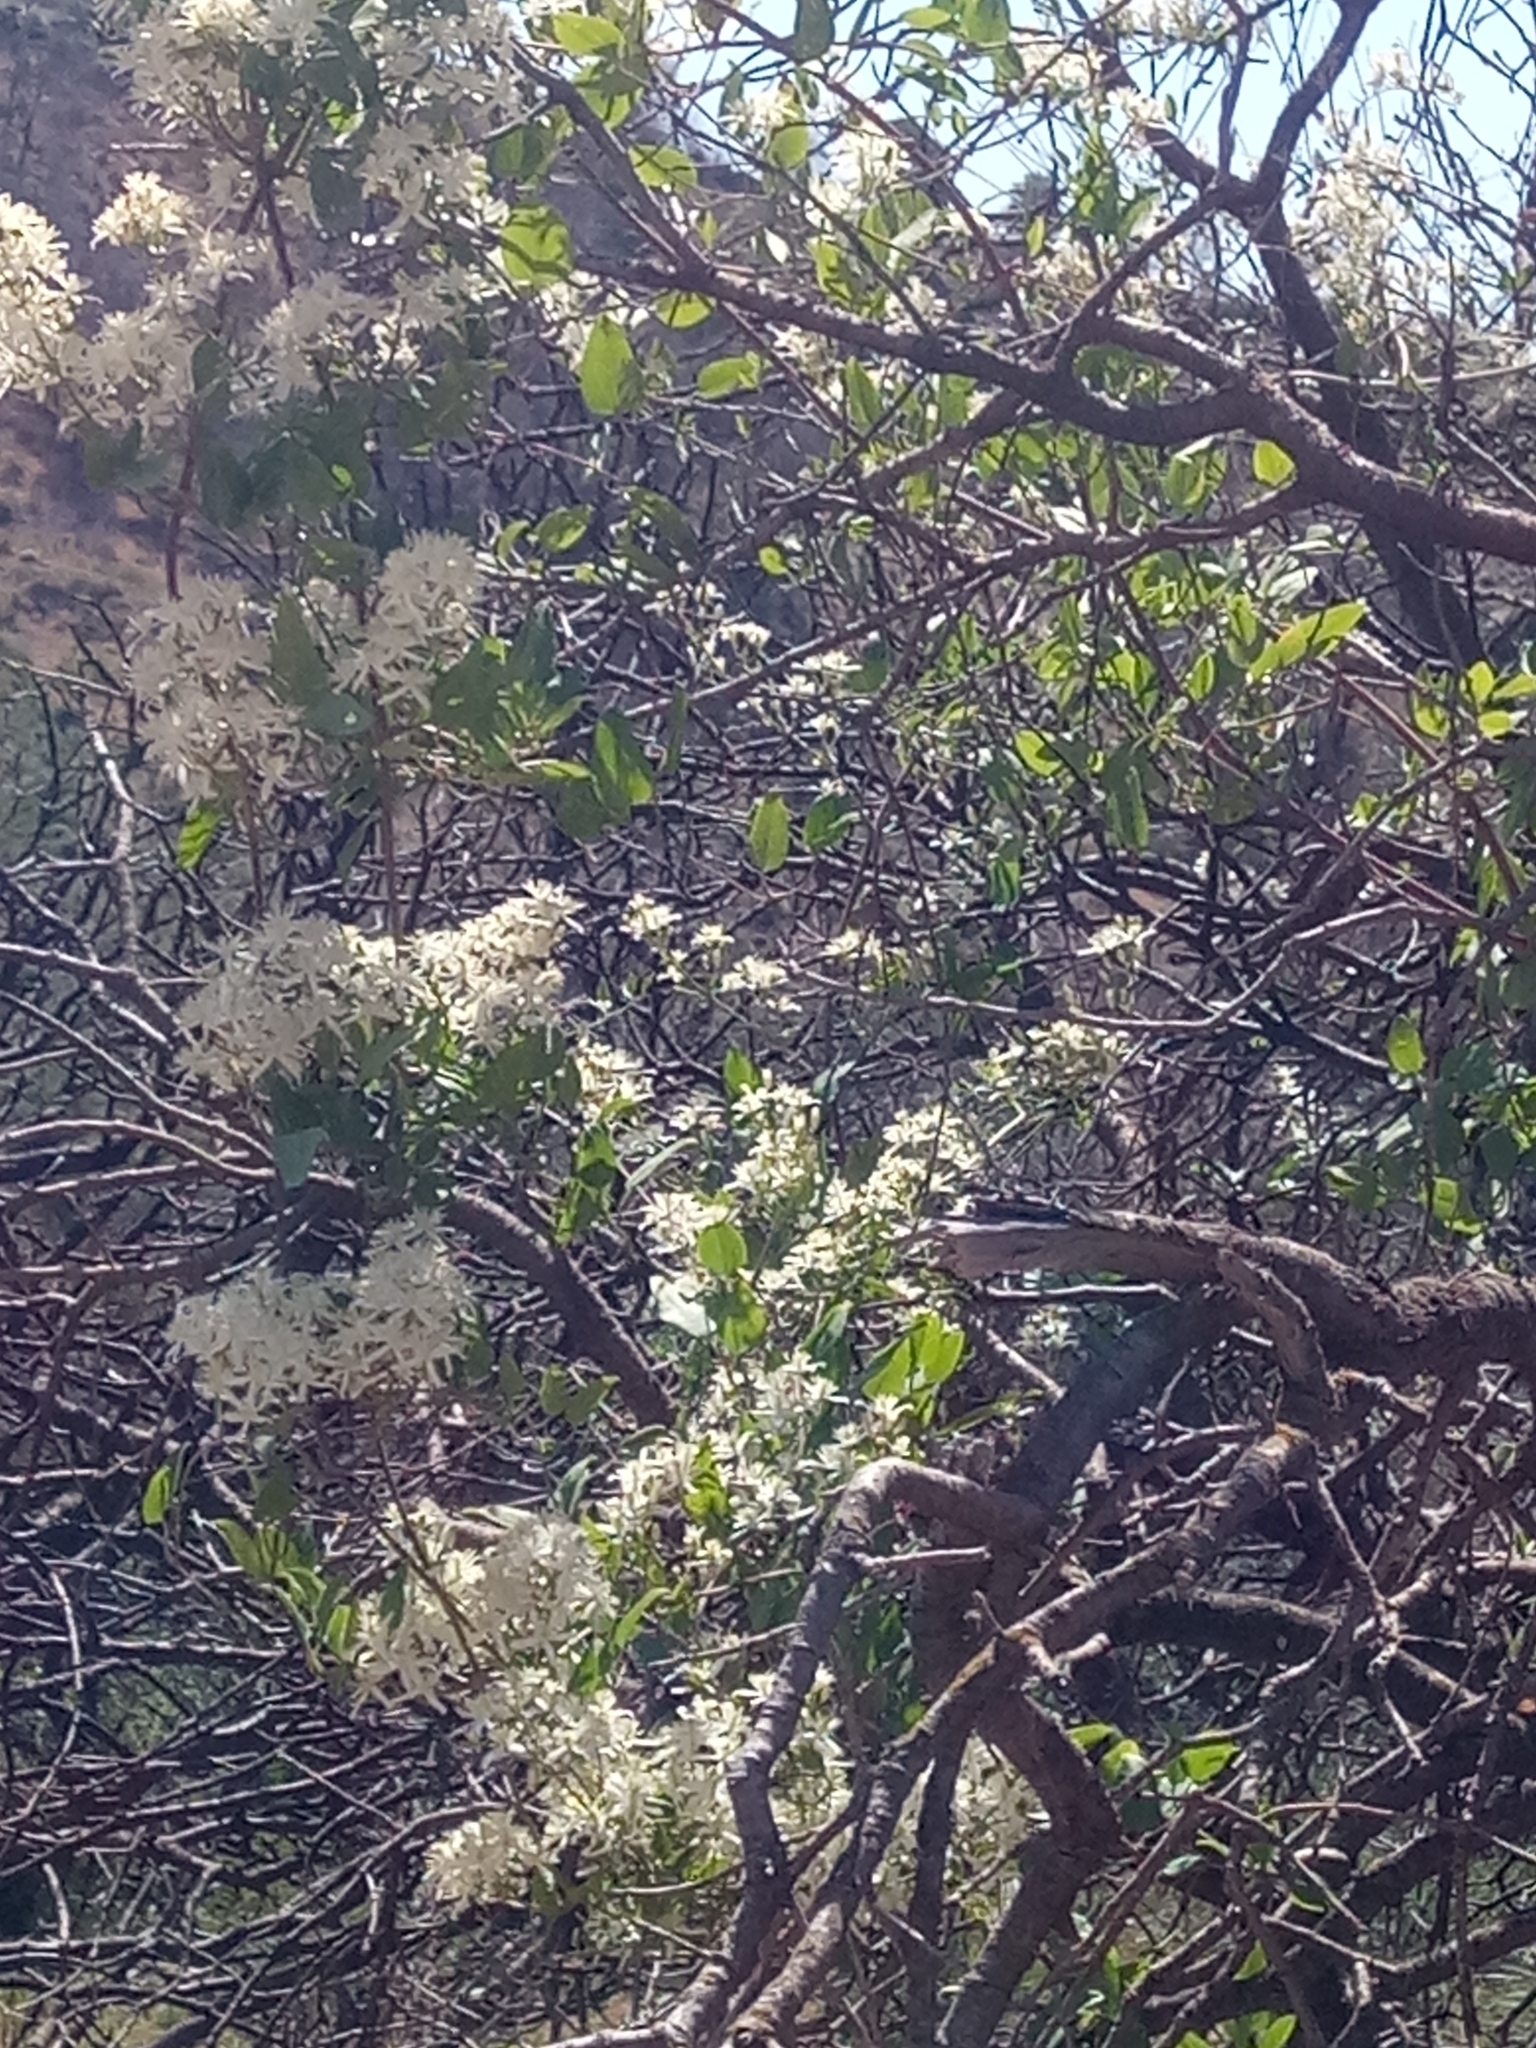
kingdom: Plantae
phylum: Tracheophyta
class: Magnoliopsida
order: Ranunculales
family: Ranunculaceae
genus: Clematis
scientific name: Clematis flammula
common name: Virgin's-bower
